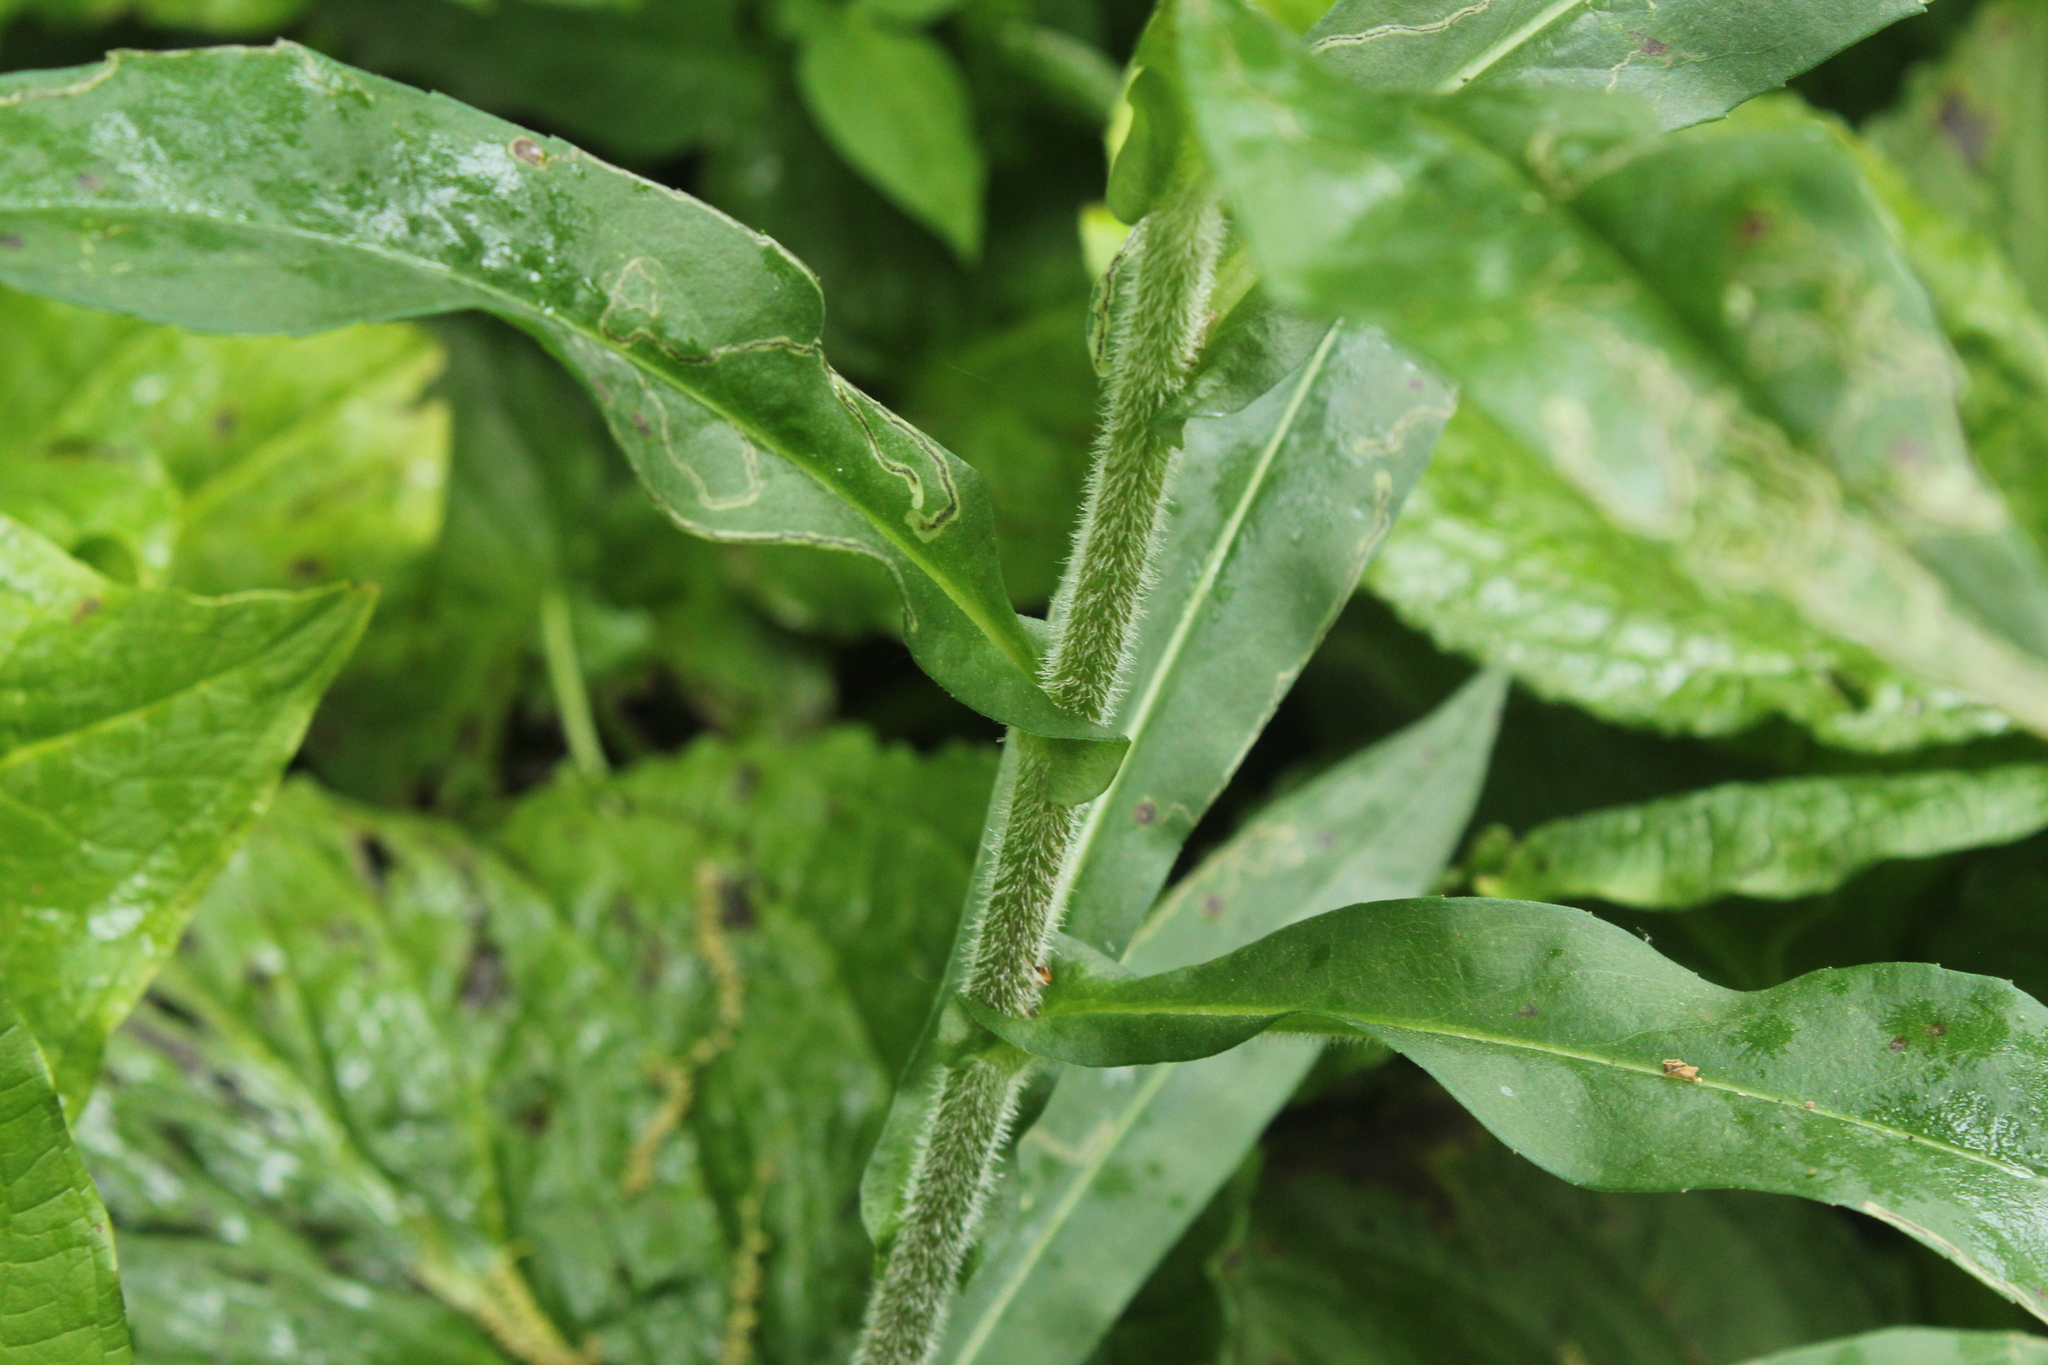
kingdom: Plantae
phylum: Tracheophyta
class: Magnoliopsida
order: Asterales
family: Asteraceae
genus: Symphyotrichum
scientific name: Symphyotrichum puniceum
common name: Bog aster
